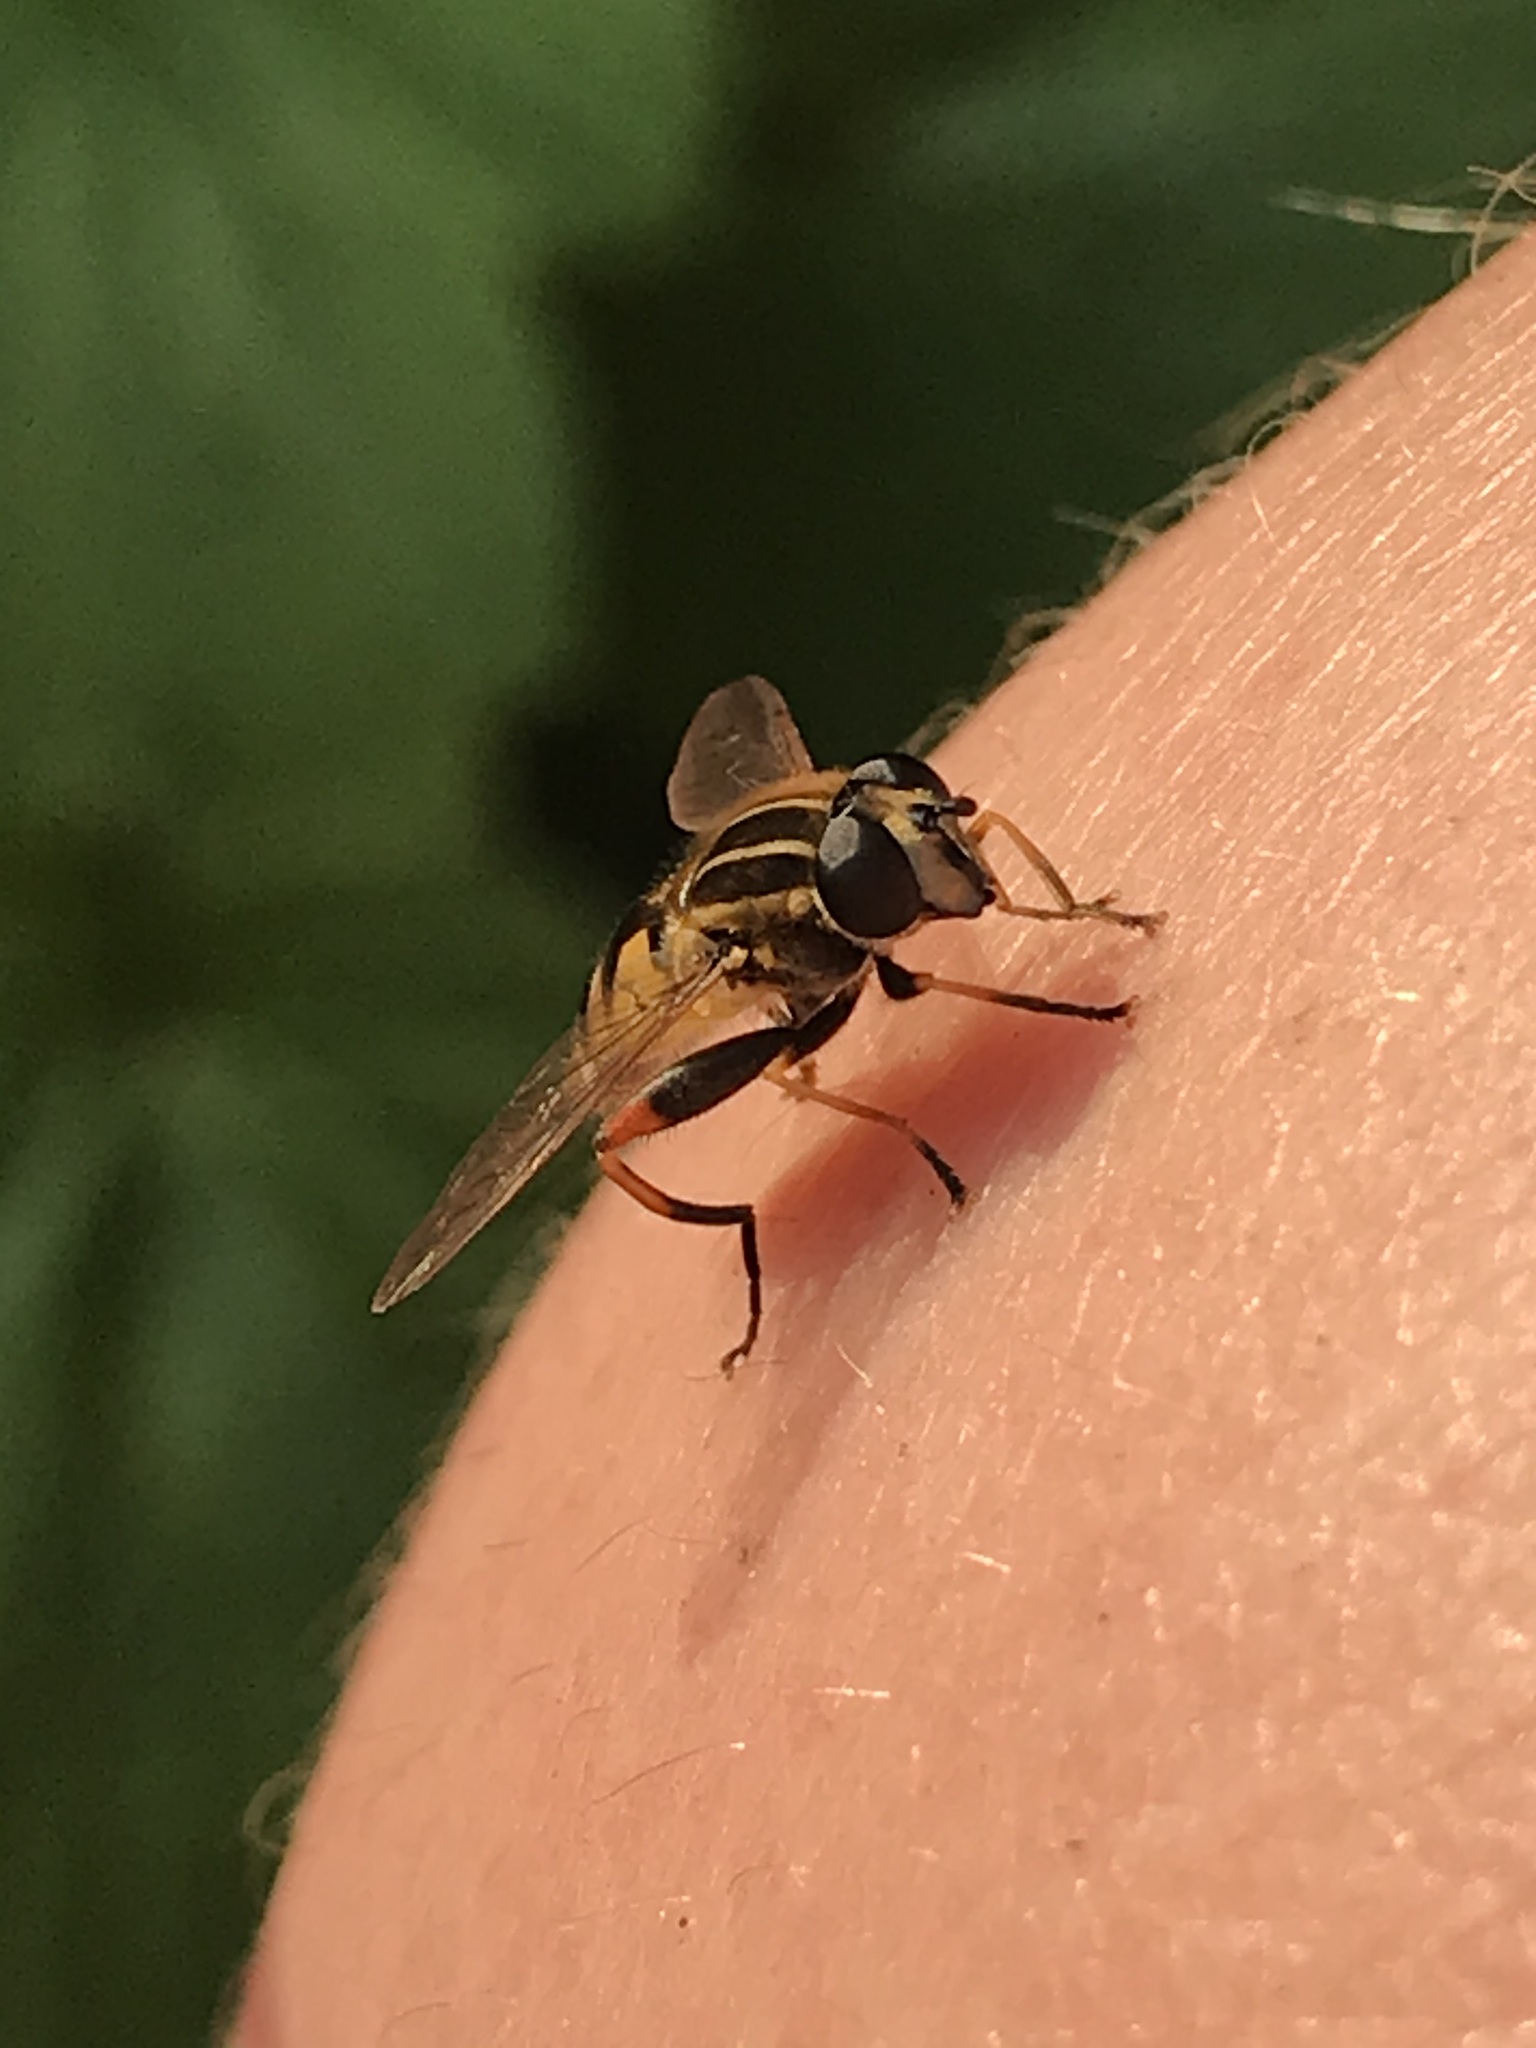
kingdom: Animalia
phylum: Arthropoda
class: Insecta
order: Diptera
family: Syrphidae
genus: Helophilus
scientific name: Helophilus pendulus
